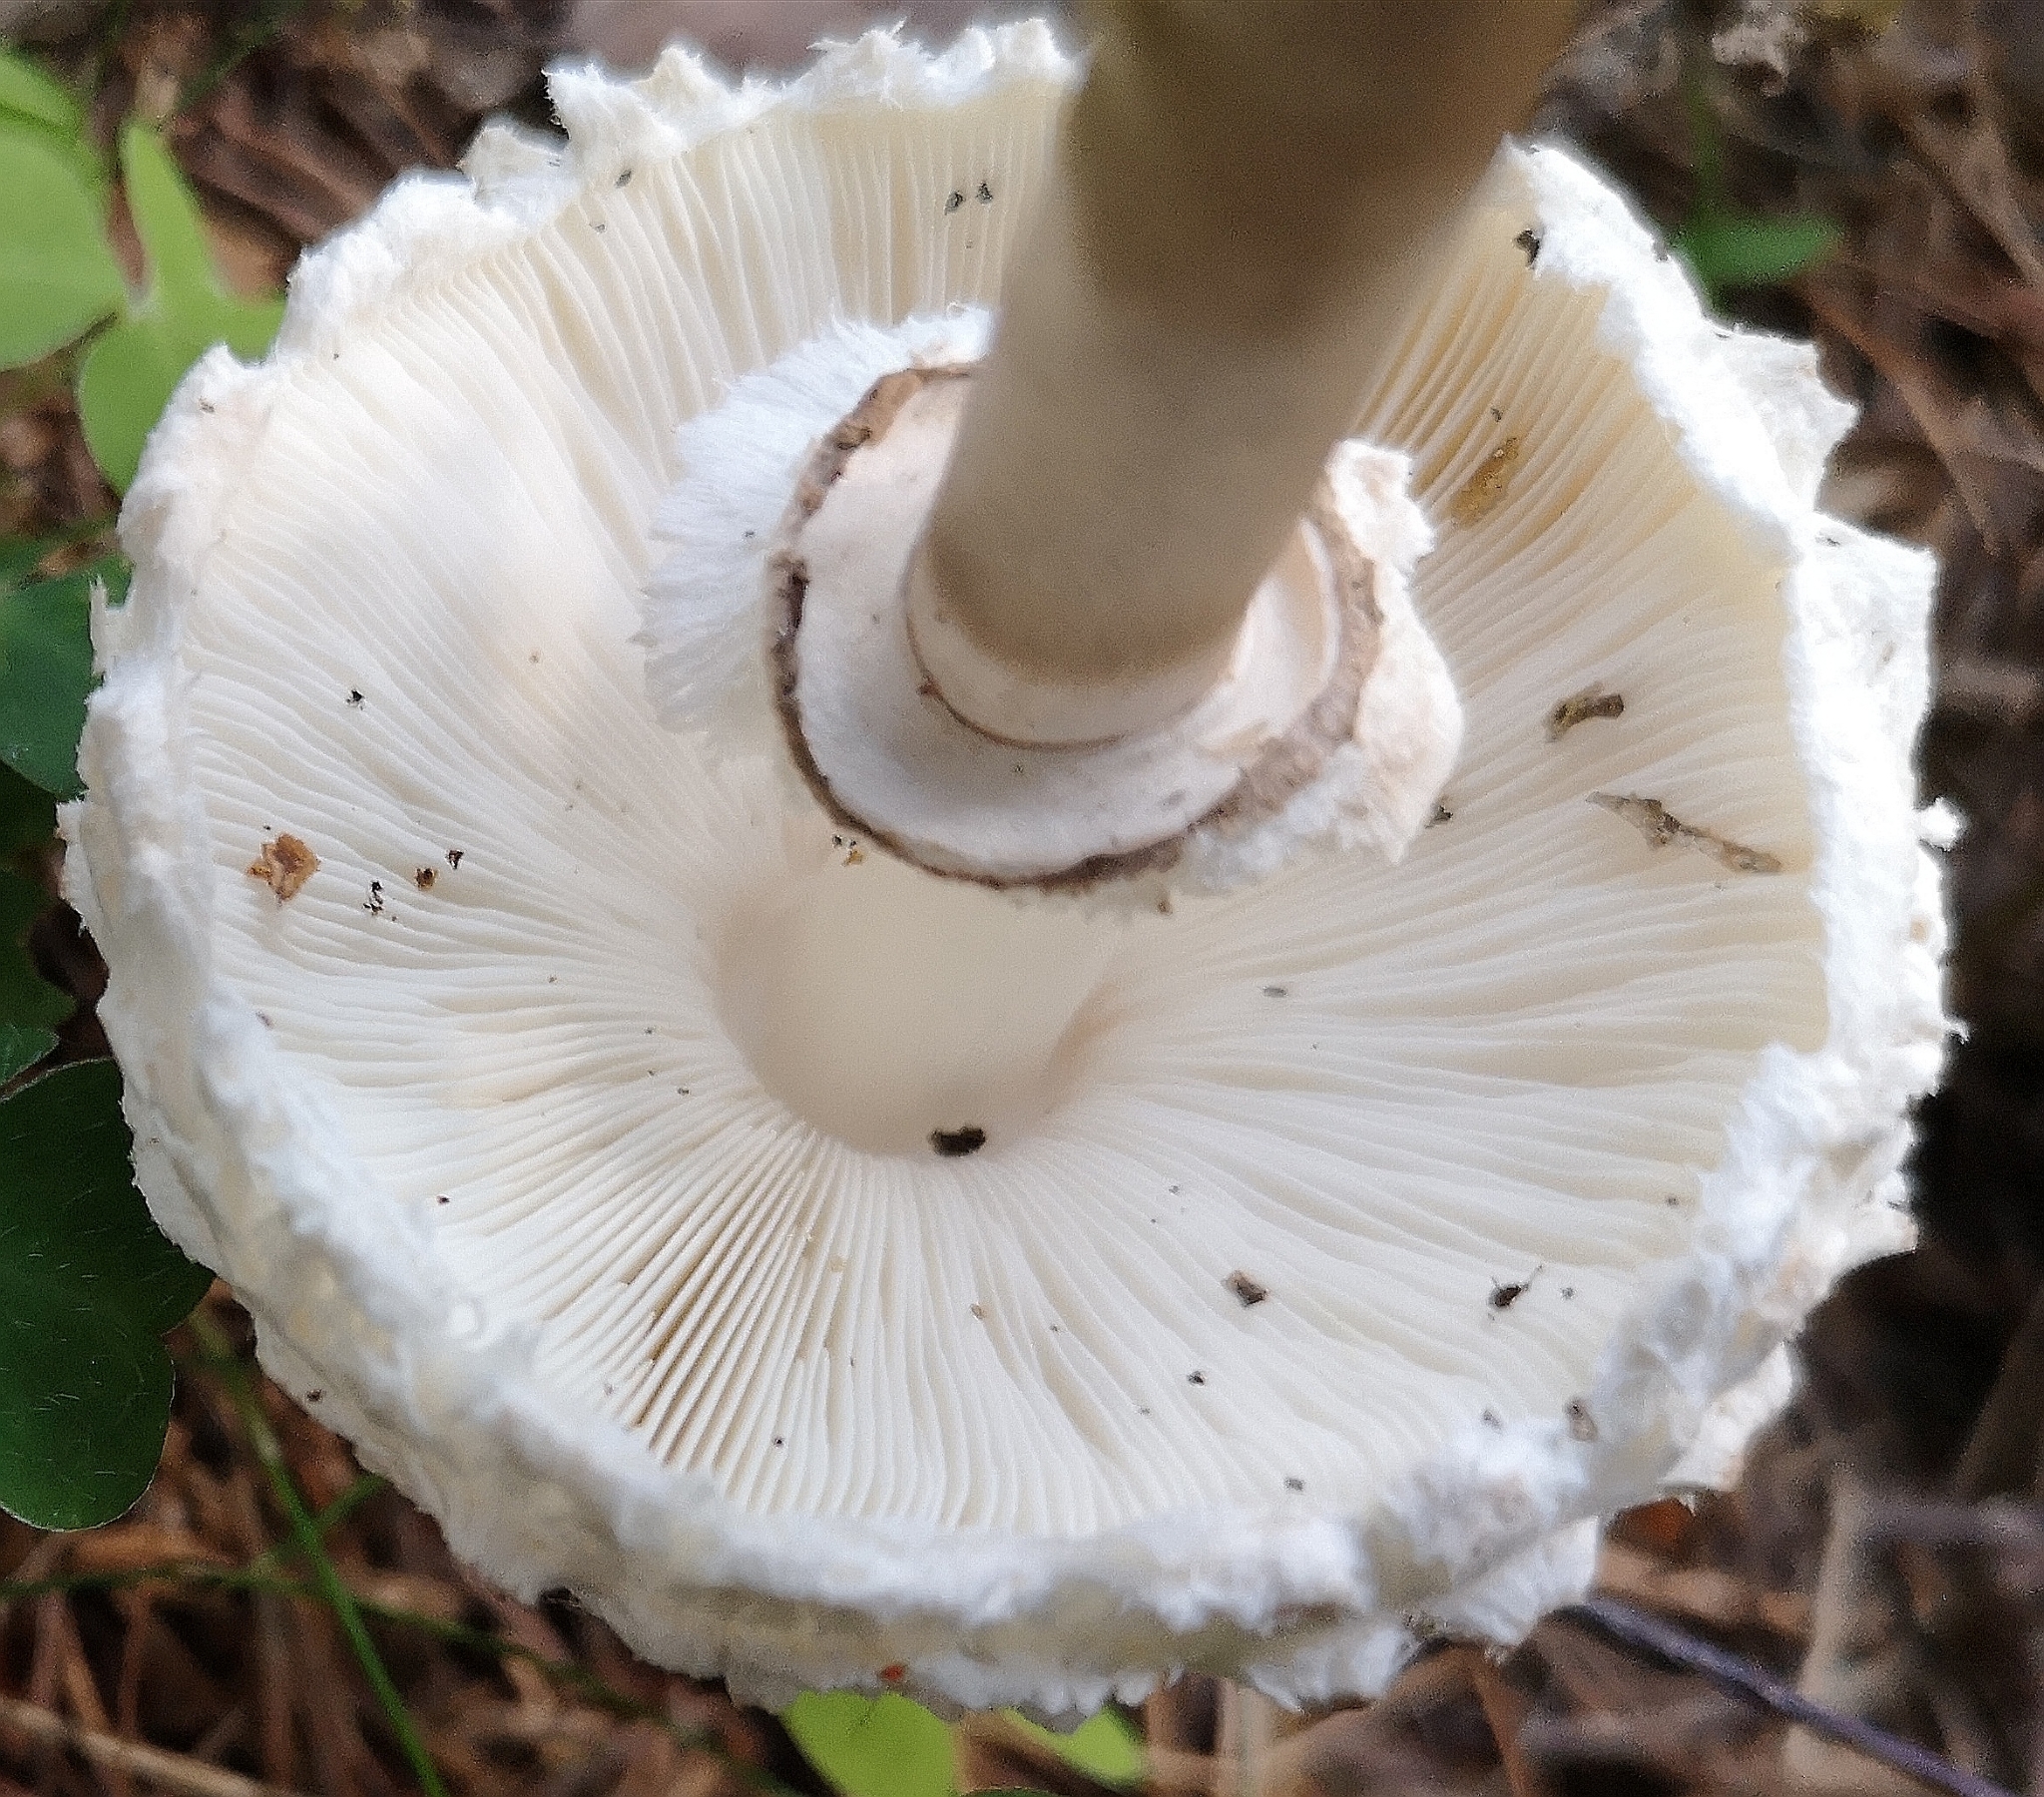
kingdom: Fungi
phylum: Basidiomycota
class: Agaricomycetes
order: Agaricales
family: Agaricaceae
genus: Chlorophyllum
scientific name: Chlorophyllum rhacodes
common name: Shaggy parasol
